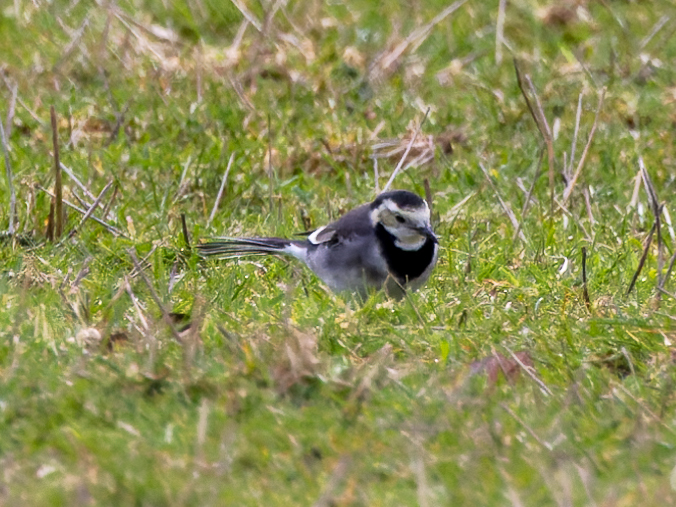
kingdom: Animalia
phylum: Chordata
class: Aves
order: Passeriformes
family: Motacillidae
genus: Motacilla
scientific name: Motacilla alba
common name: White wagtail
